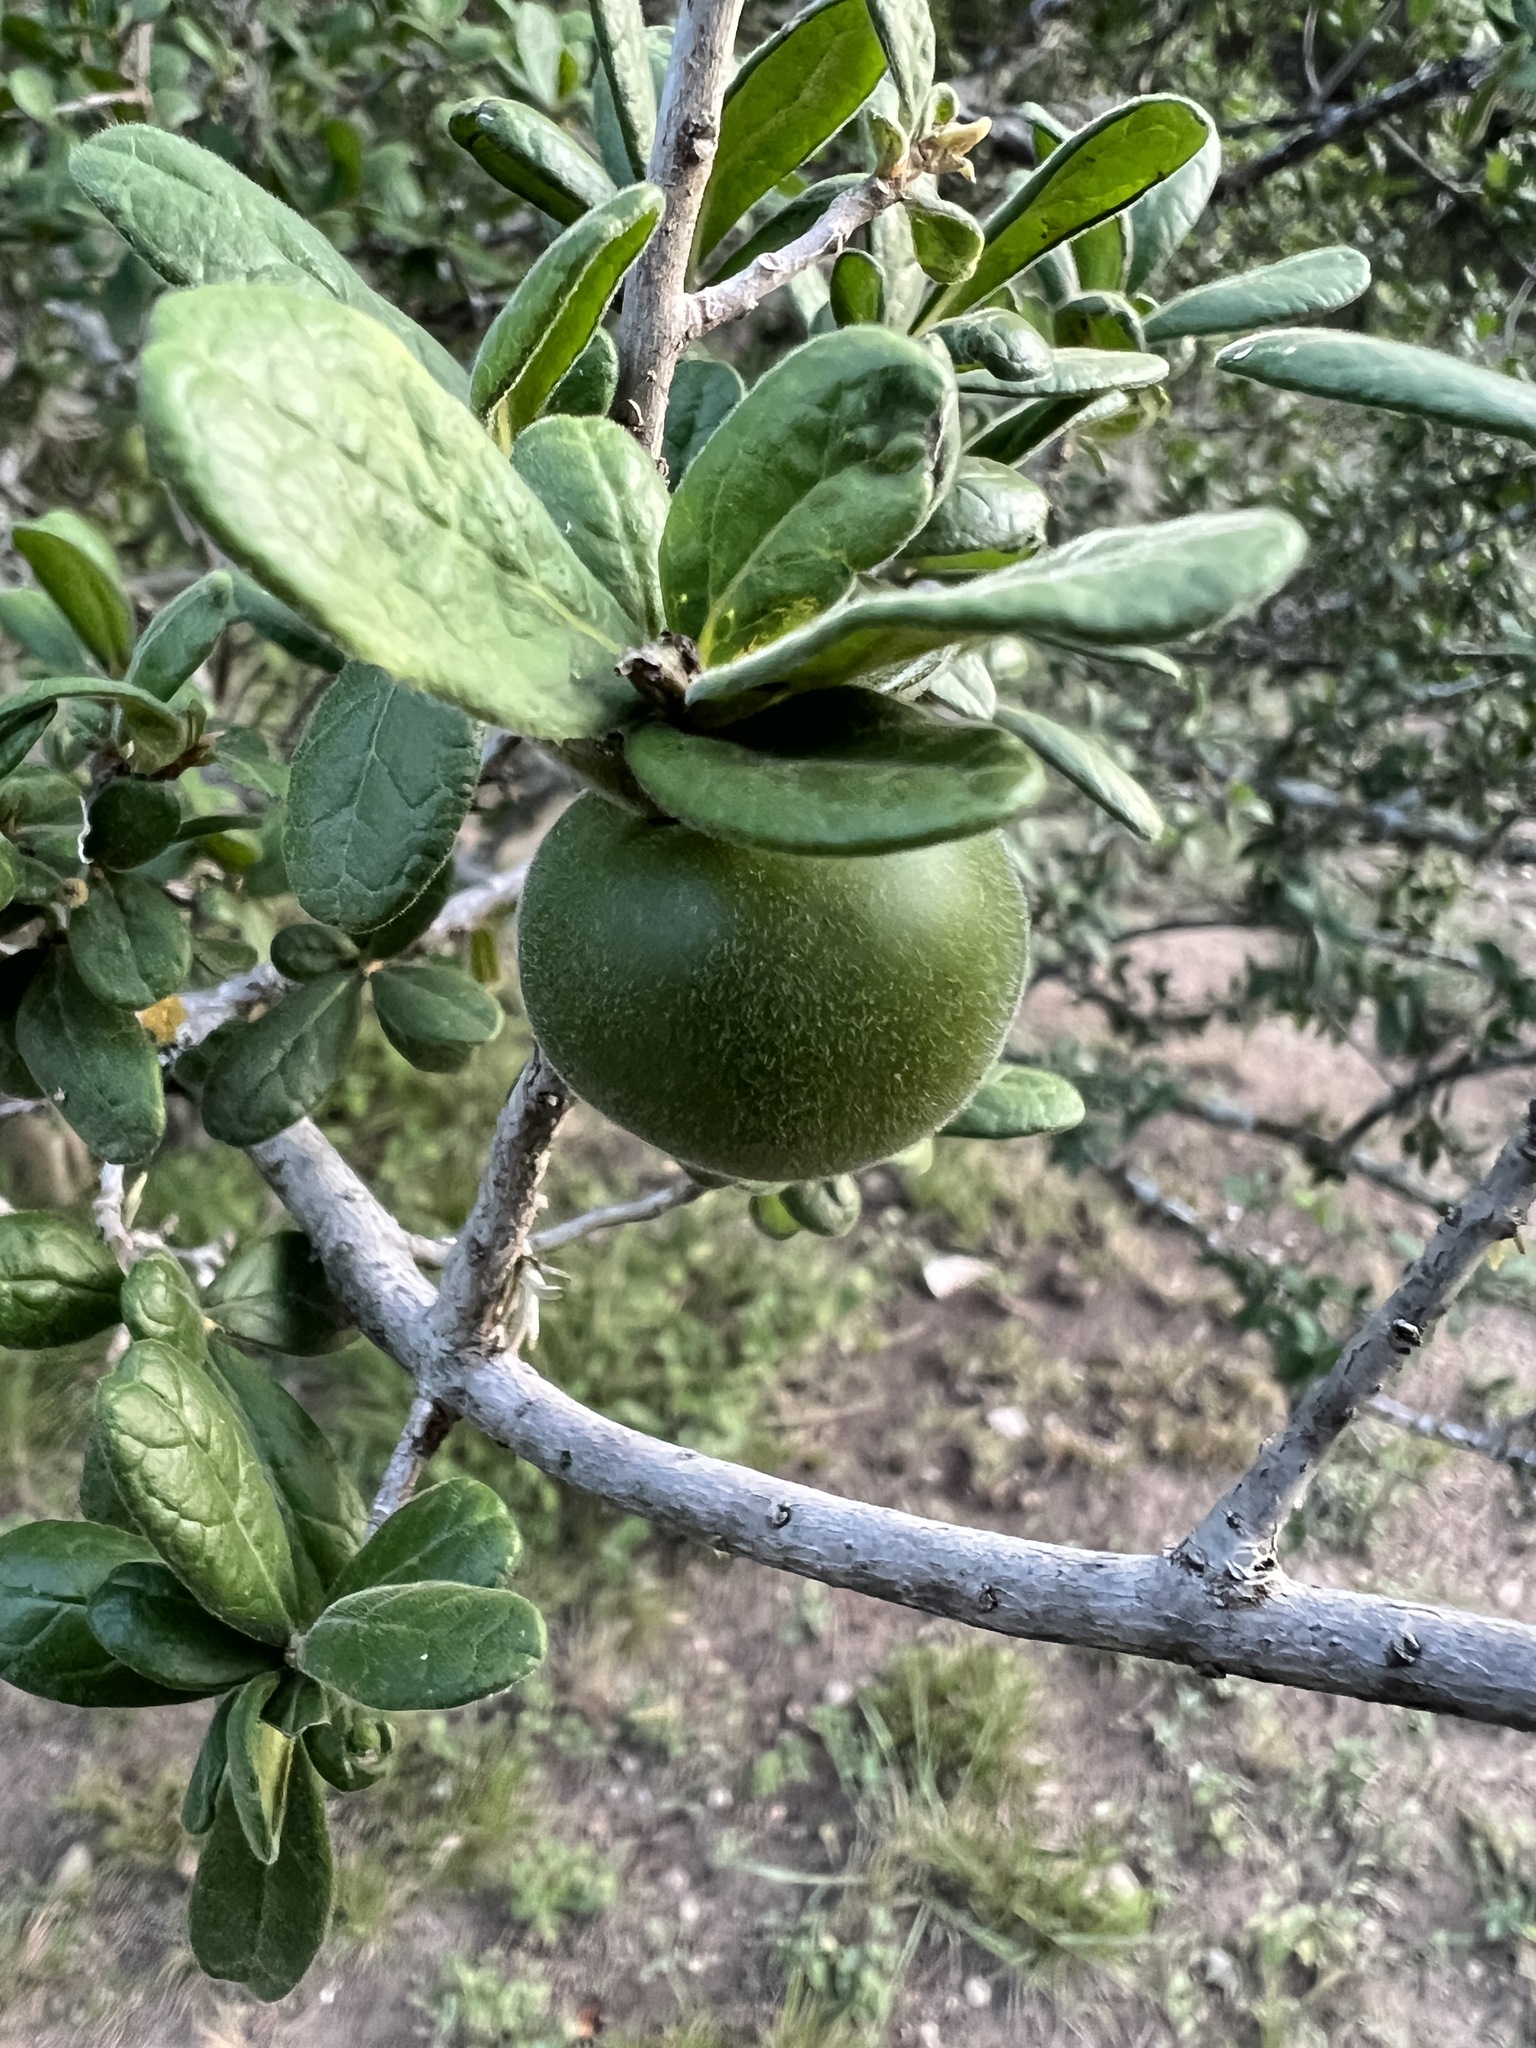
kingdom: Plantae
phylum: Tracheophyta
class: Magnoliopsida
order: Ericales
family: Ebenaceae
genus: Diospyros
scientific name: Diospyros texana
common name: Texas persimmon
